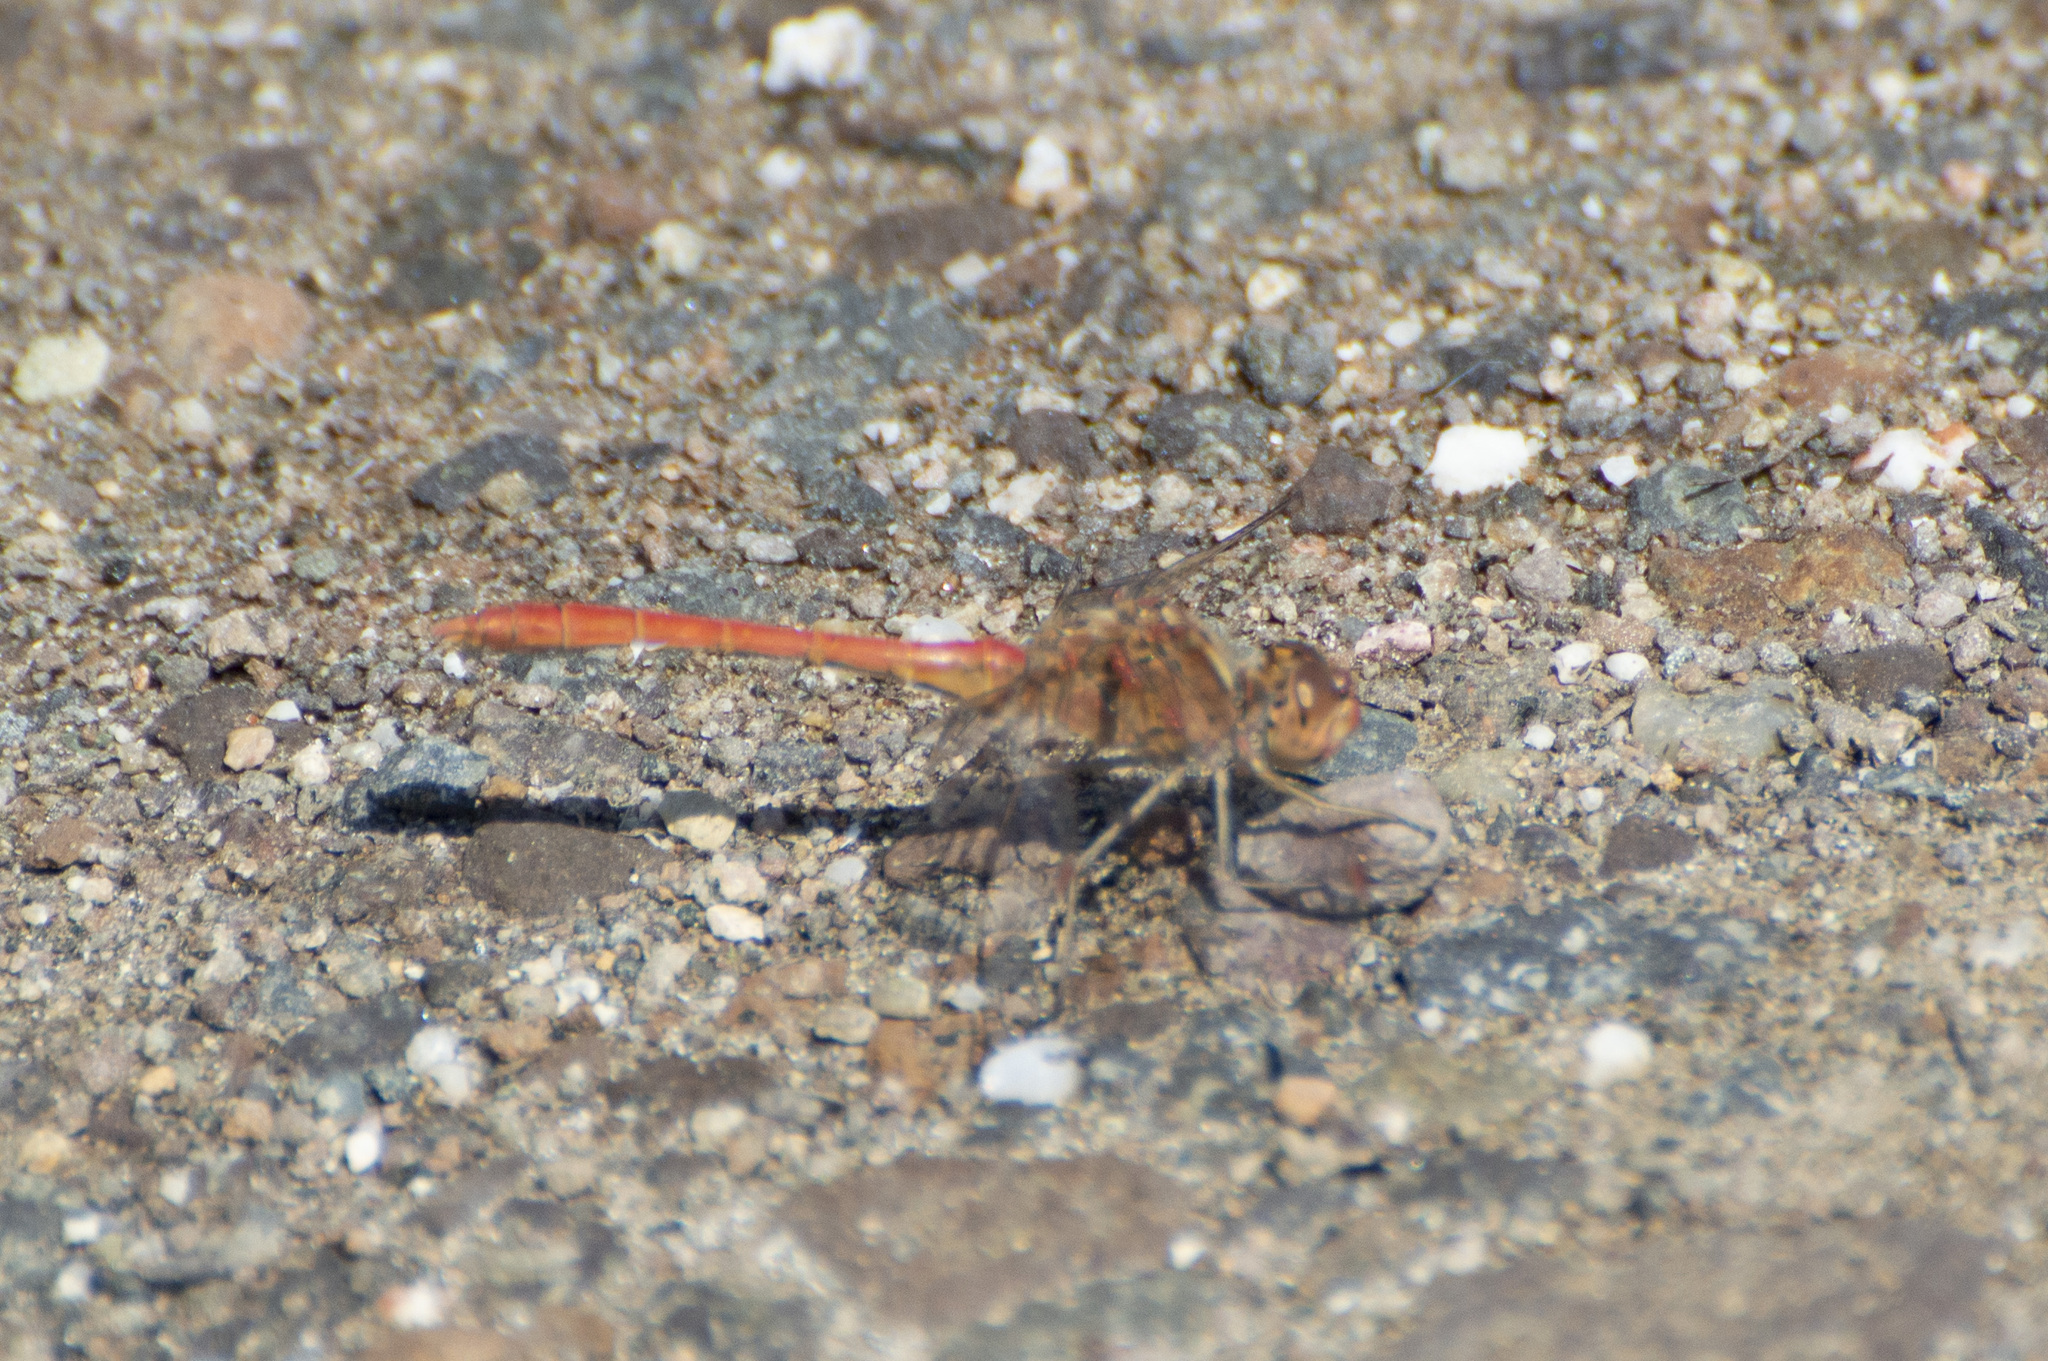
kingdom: Animalia
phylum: Arthropoda
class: Insecta
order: Odonata
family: Libellulidae
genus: Sympetrum
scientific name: Sympetrum meridionale
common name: Southern darter
